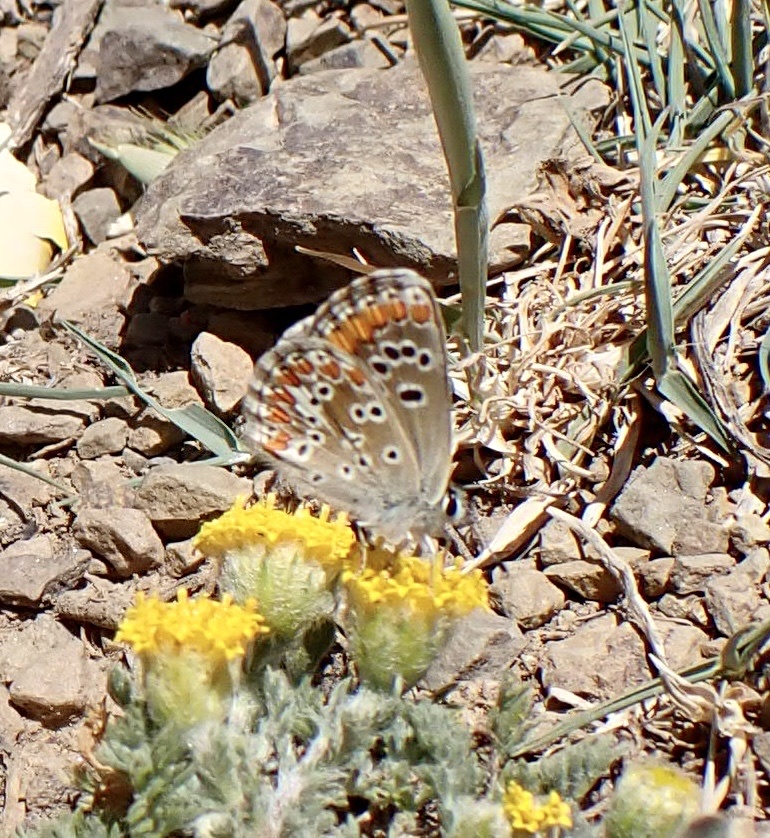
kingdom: Animalia
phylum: Arthropoda
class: Insecta
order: Lepidoptera
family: Lycaenidae
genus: Aricia
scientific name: Aricia cramera
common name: Eschscholtz´s brown  argus
